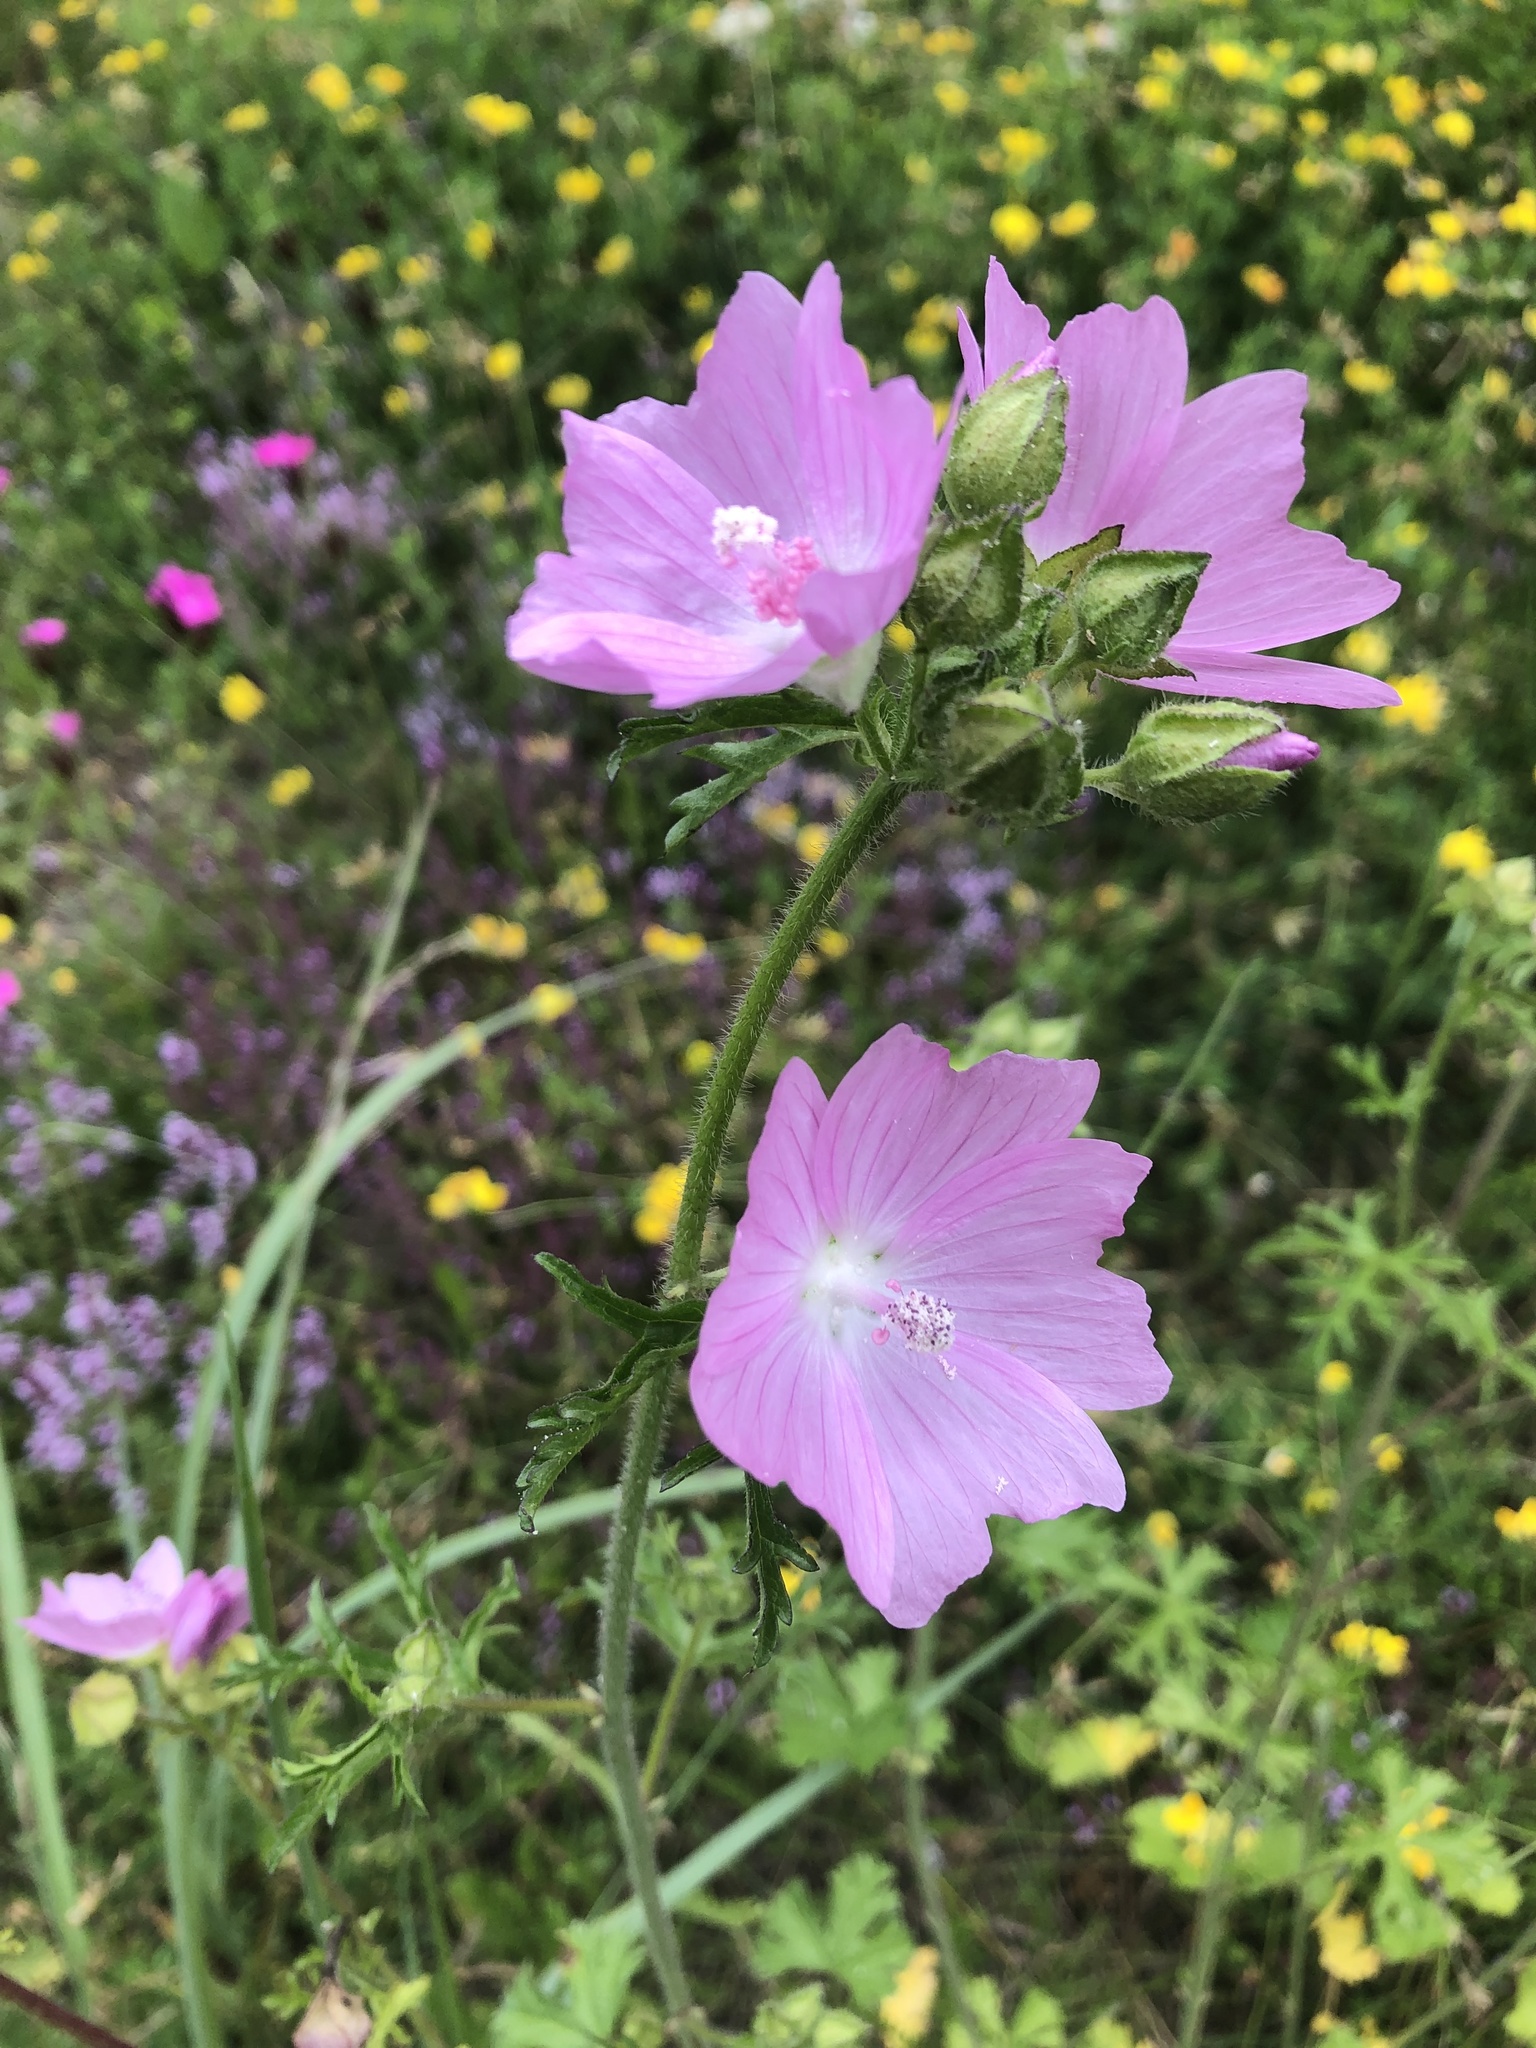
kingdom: Plantae
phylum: Tracheophyta
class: Magnoliopsida
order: Malvales
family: Malvaceae
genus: Malva
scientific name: Malva moschata
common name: Musk mallow
